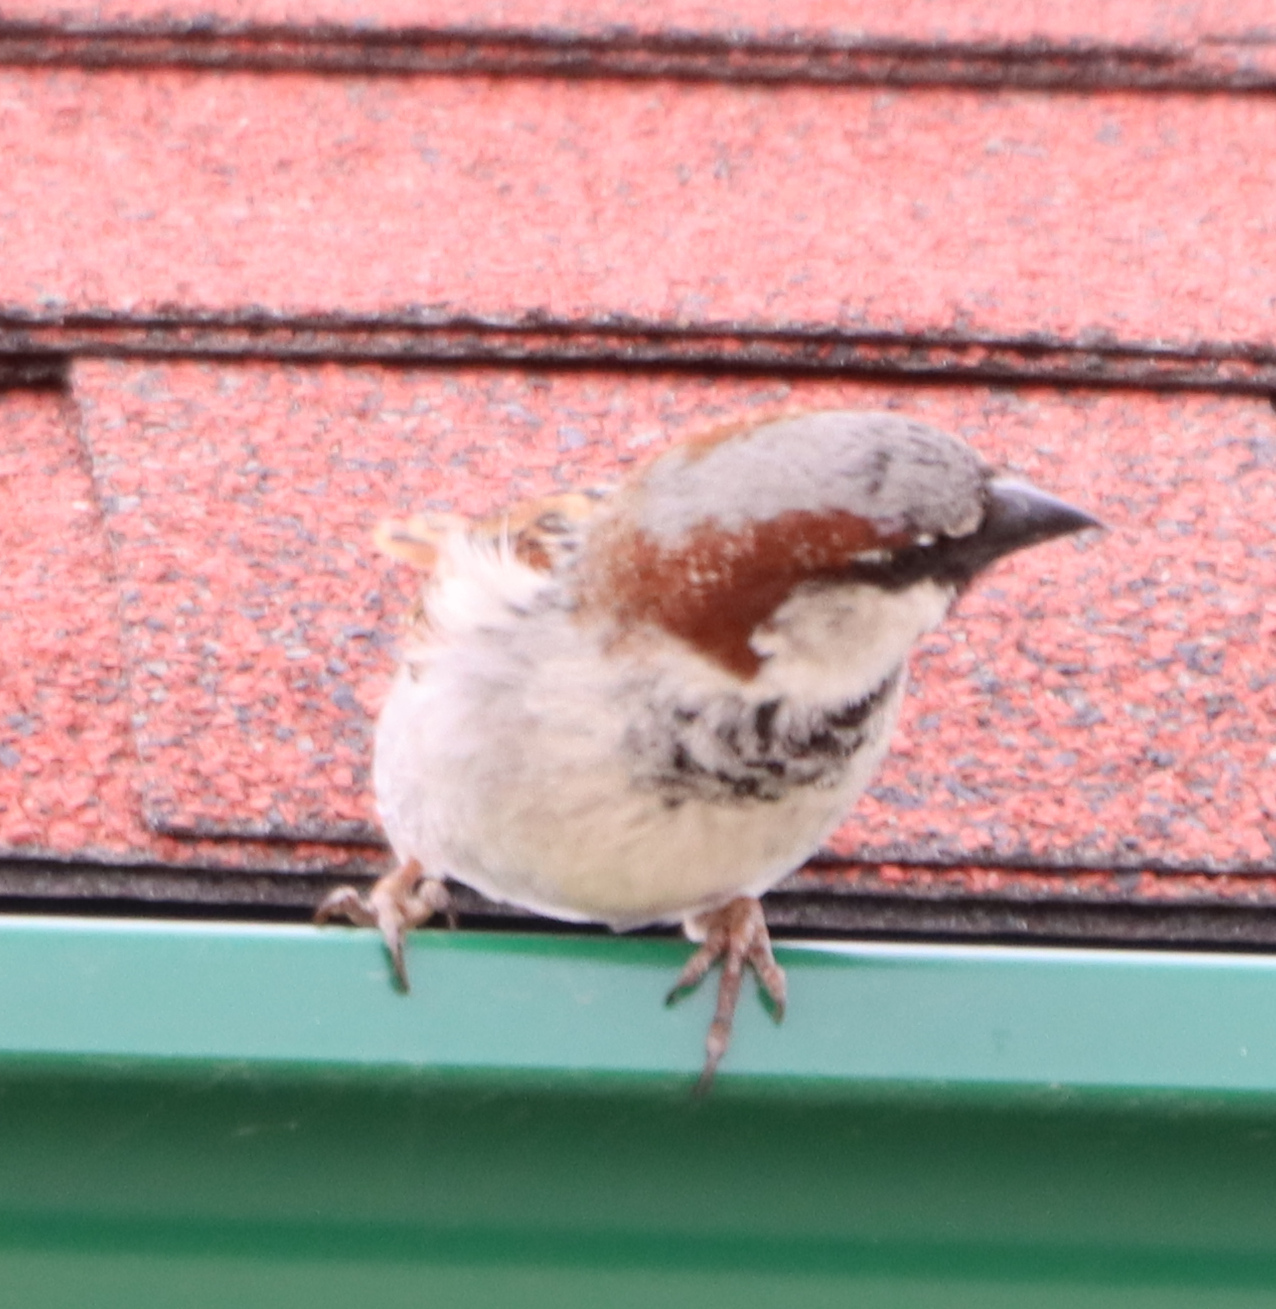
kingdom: Animalia
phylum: Chordata
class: Aves
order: Passeriformes
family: Passeridae
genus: Passer
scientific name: Passer domesticus
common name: House sparrow
